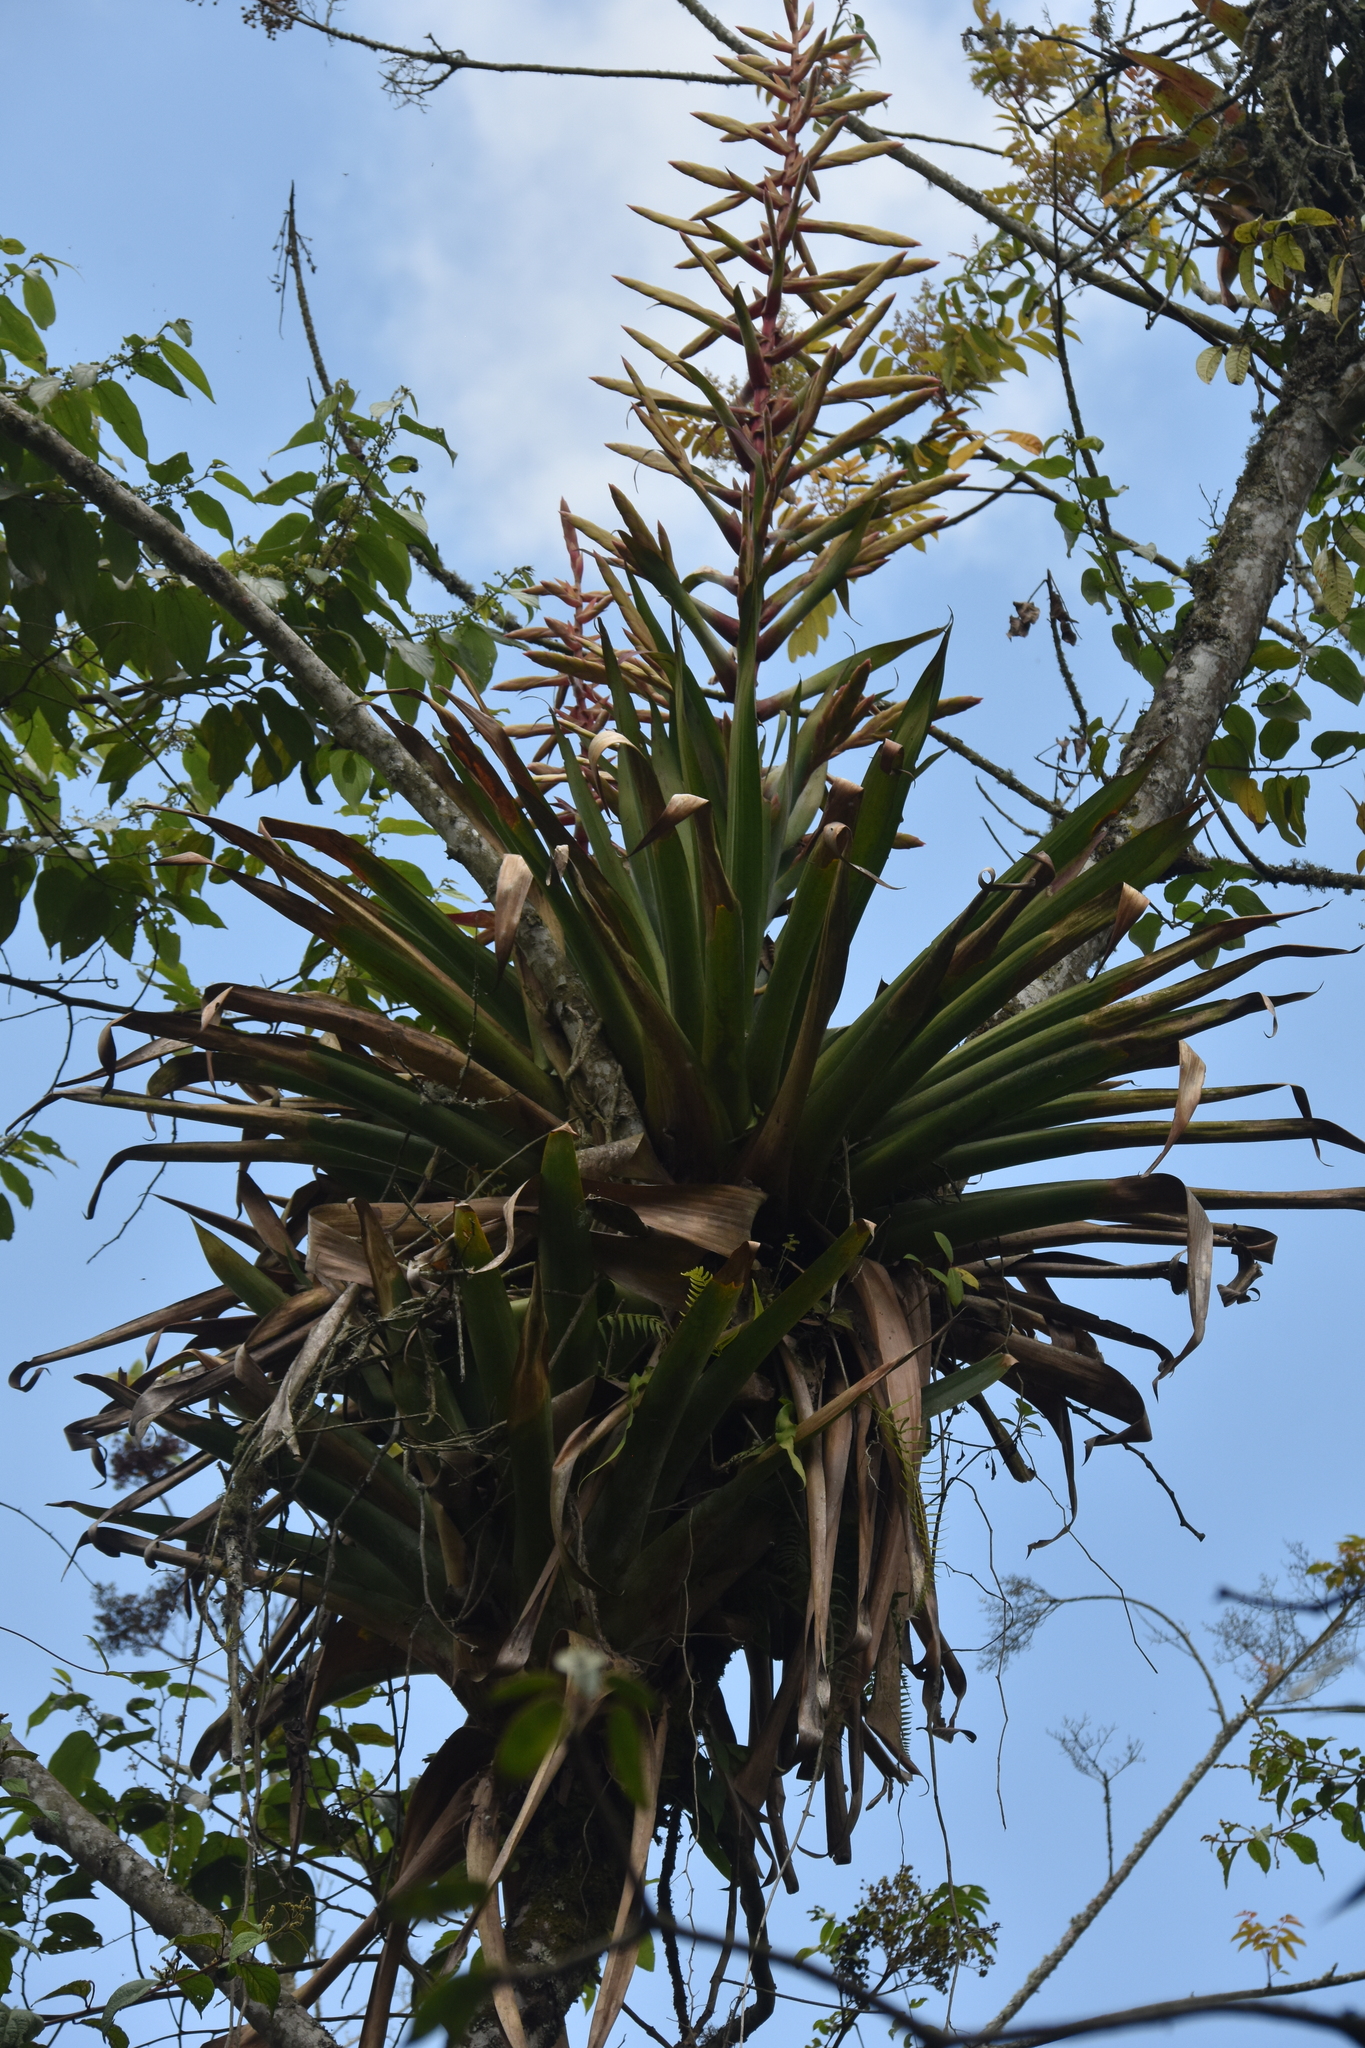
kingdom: Plantae
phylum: Tracheophyta
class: Liliopsida
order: Poales
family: Bromeliaceae
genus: Tillandsia
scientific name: Tillandsia fendleri
